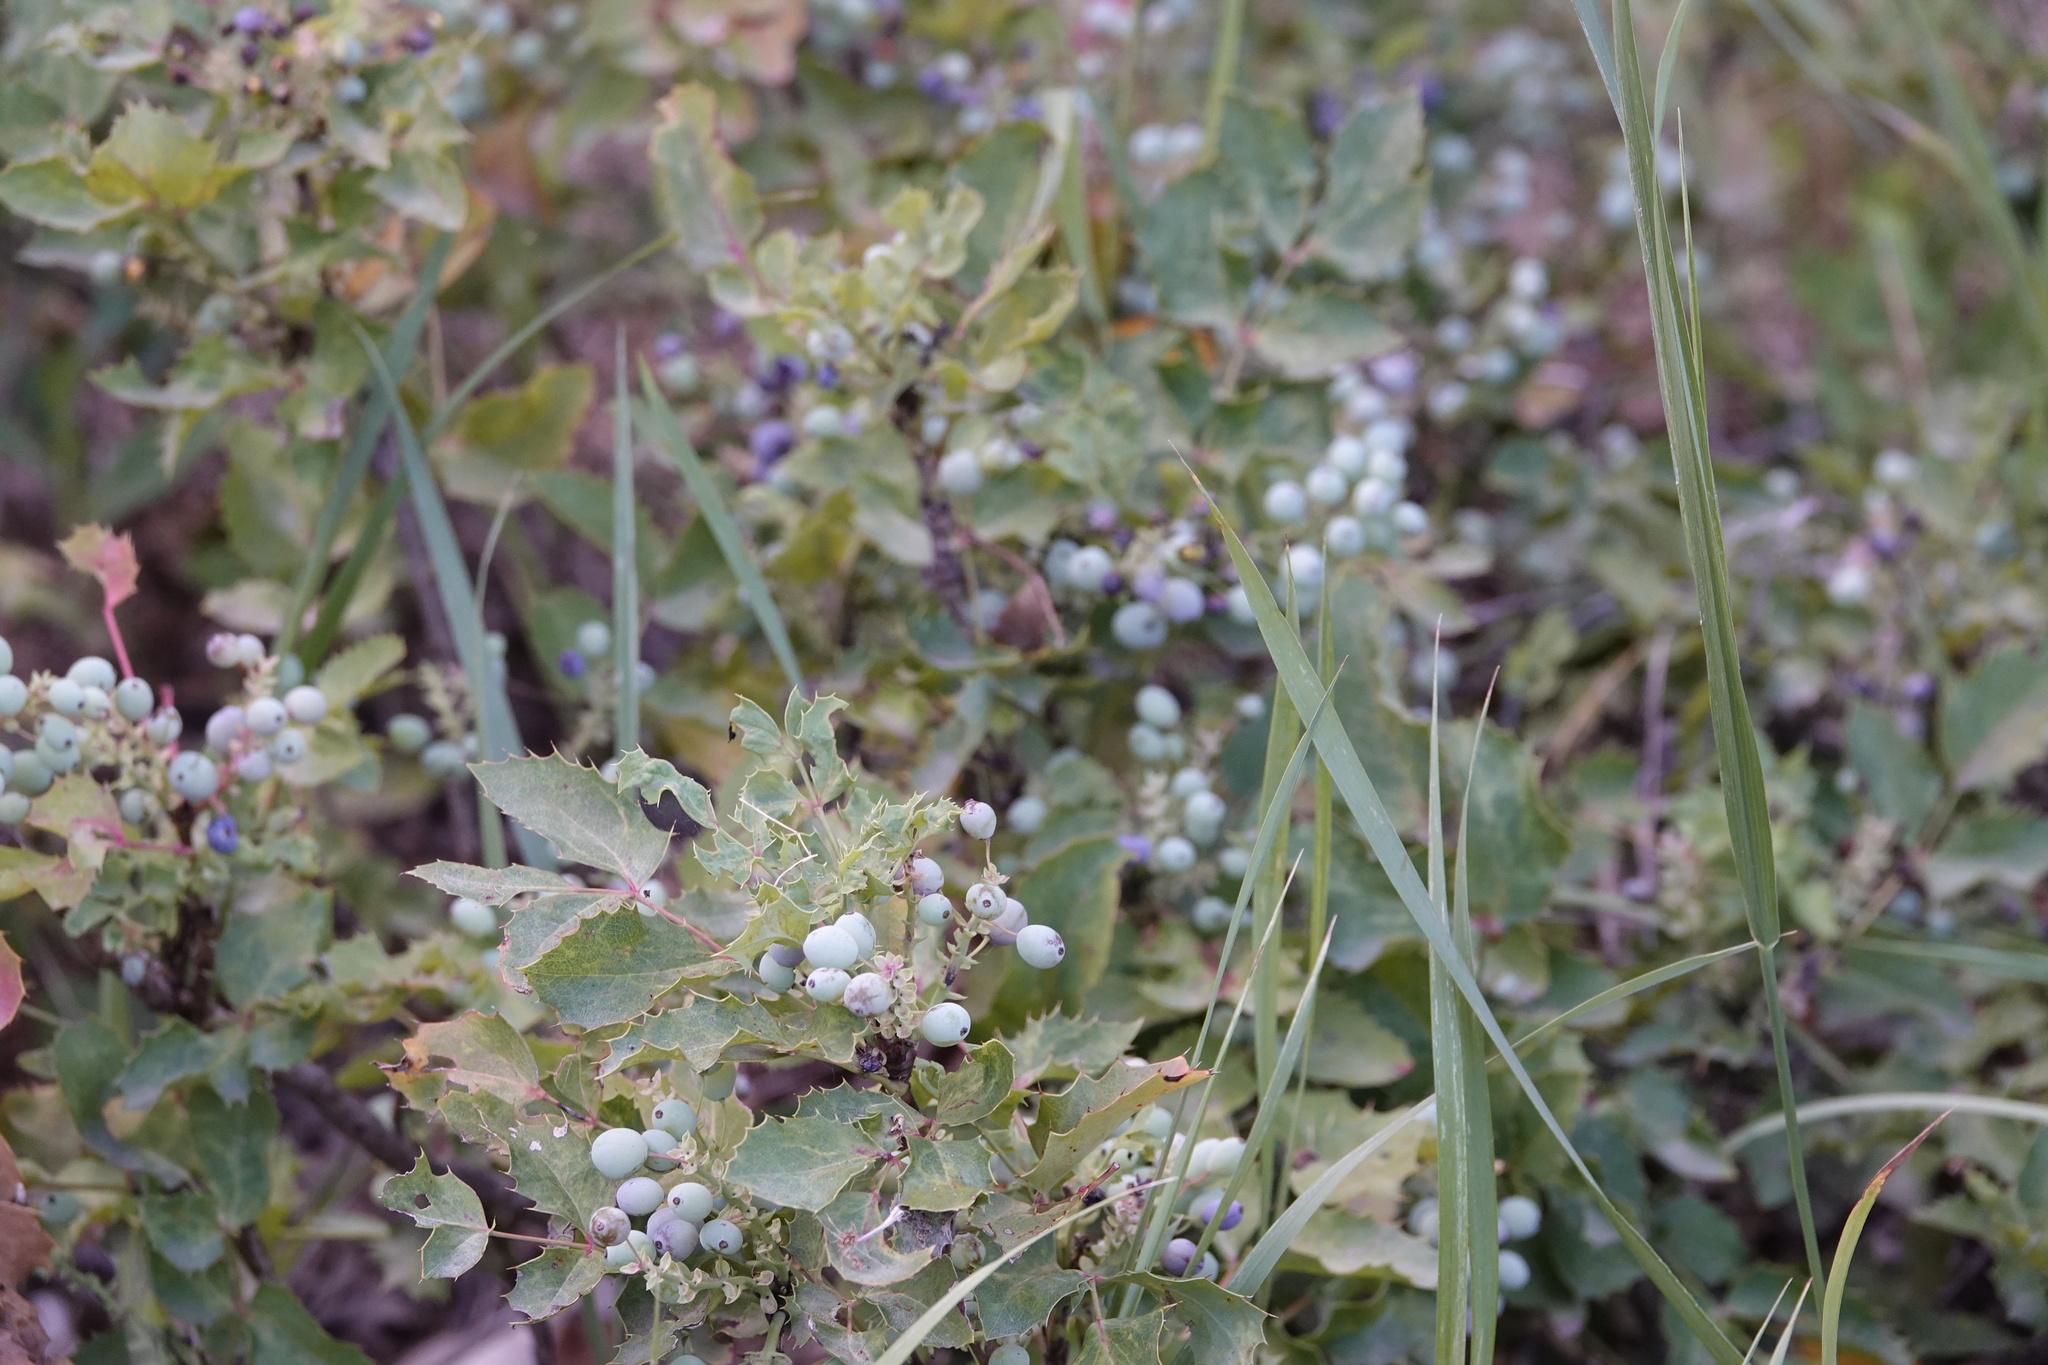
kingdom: Plantae
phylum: Tracheophyta
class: Magnoliopsida
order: Ranunculales
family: Berberidaceae
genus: Mahonia
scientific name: Mahonia repens
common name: Creeping oregon-grape
